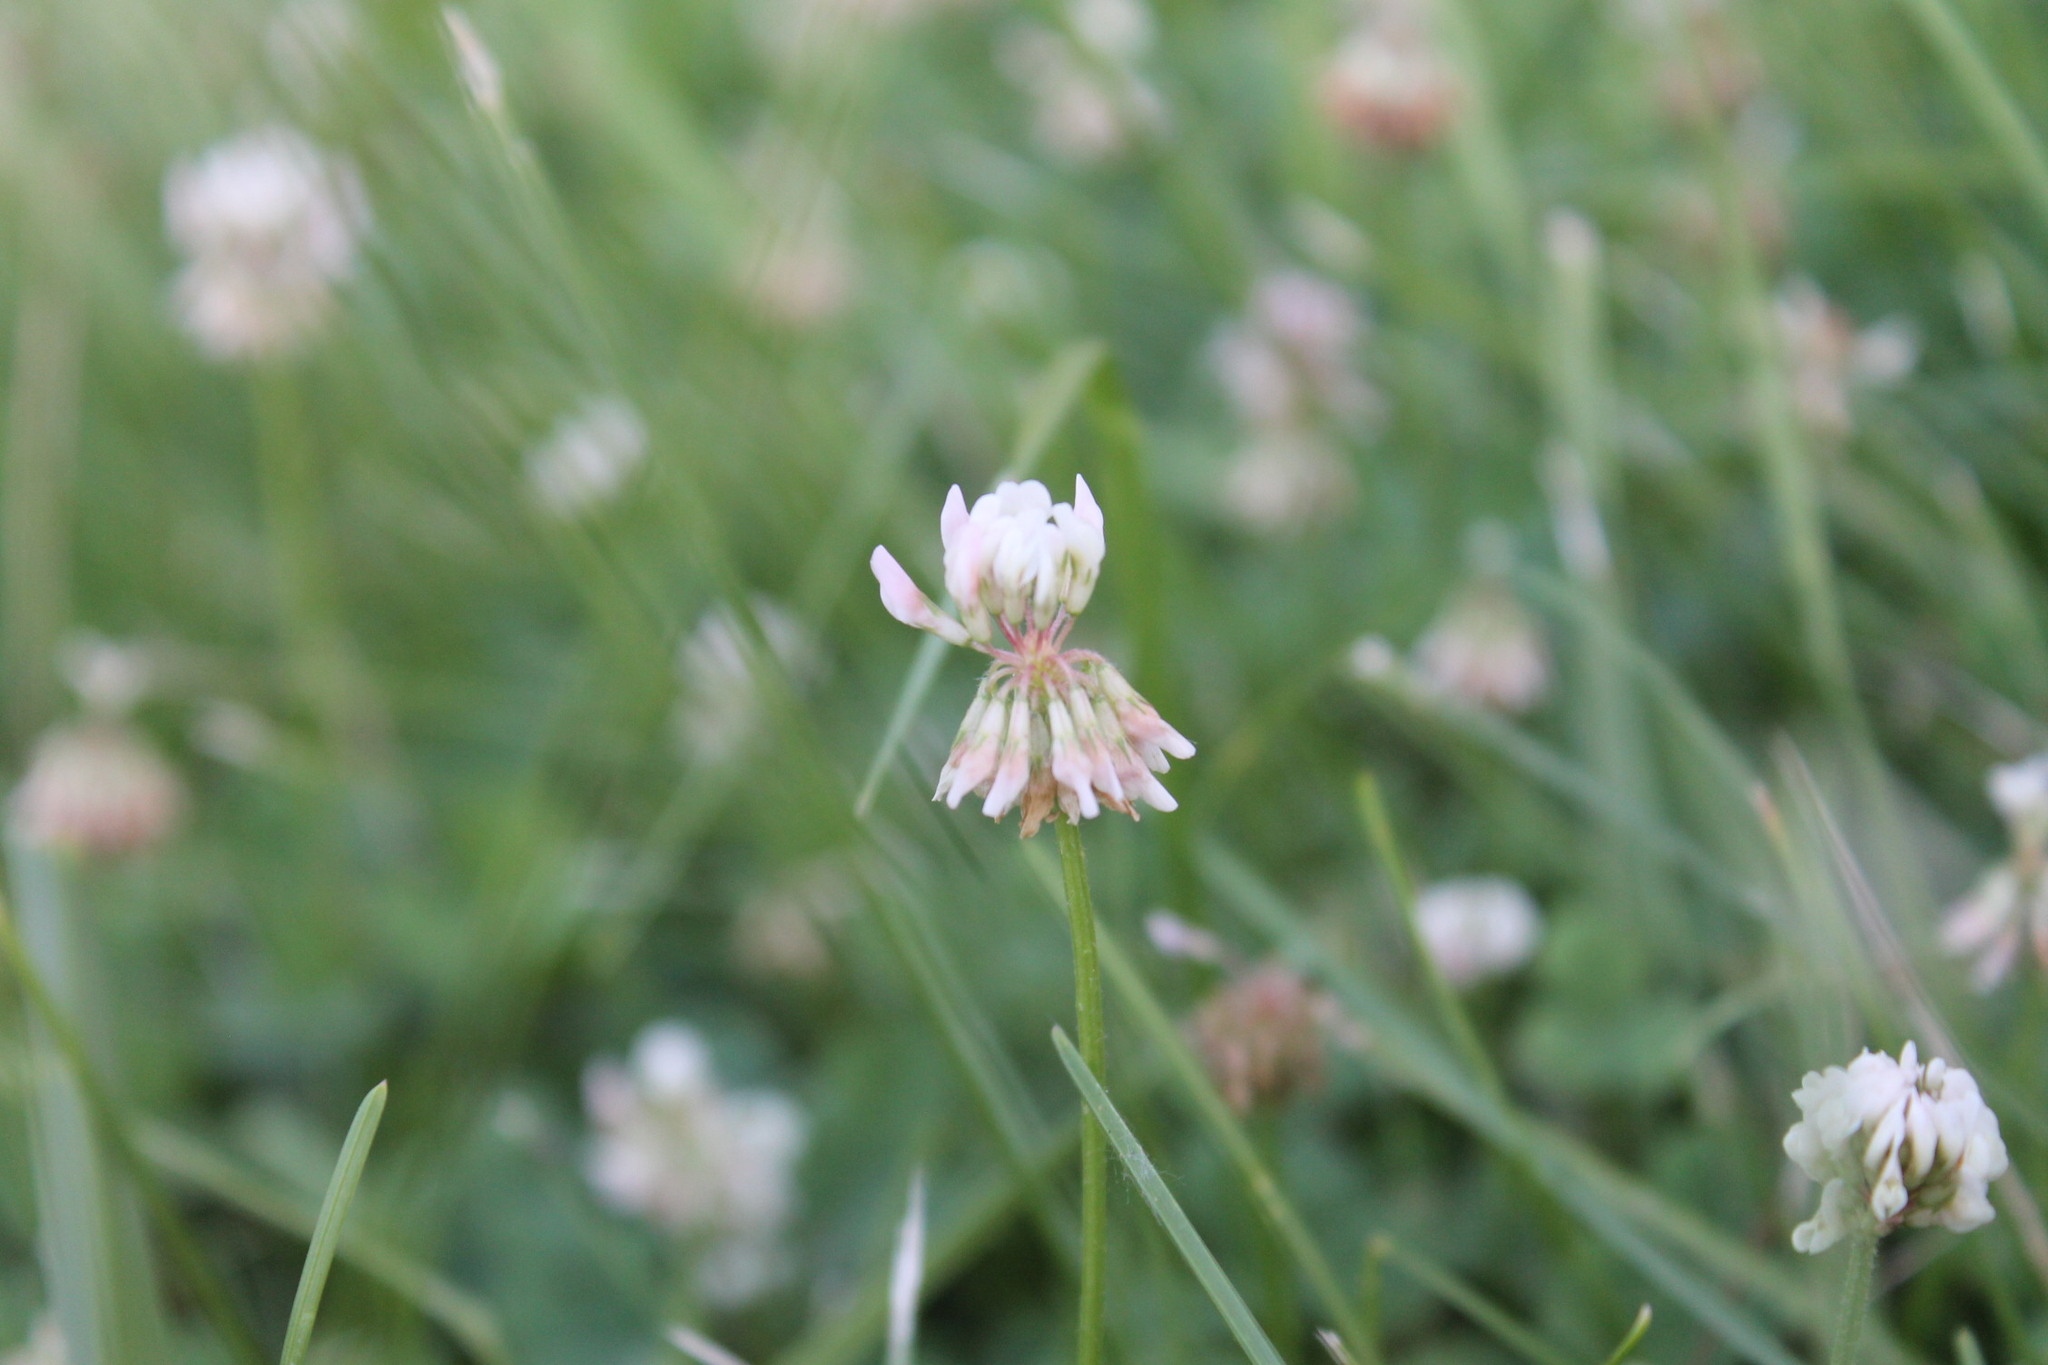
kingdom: Plantae
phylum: Tracheophyta
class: Magnoliopsida
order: Fabales
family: Fabaceae
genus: Trifolium
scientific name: Trifolium repens
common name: White clover
